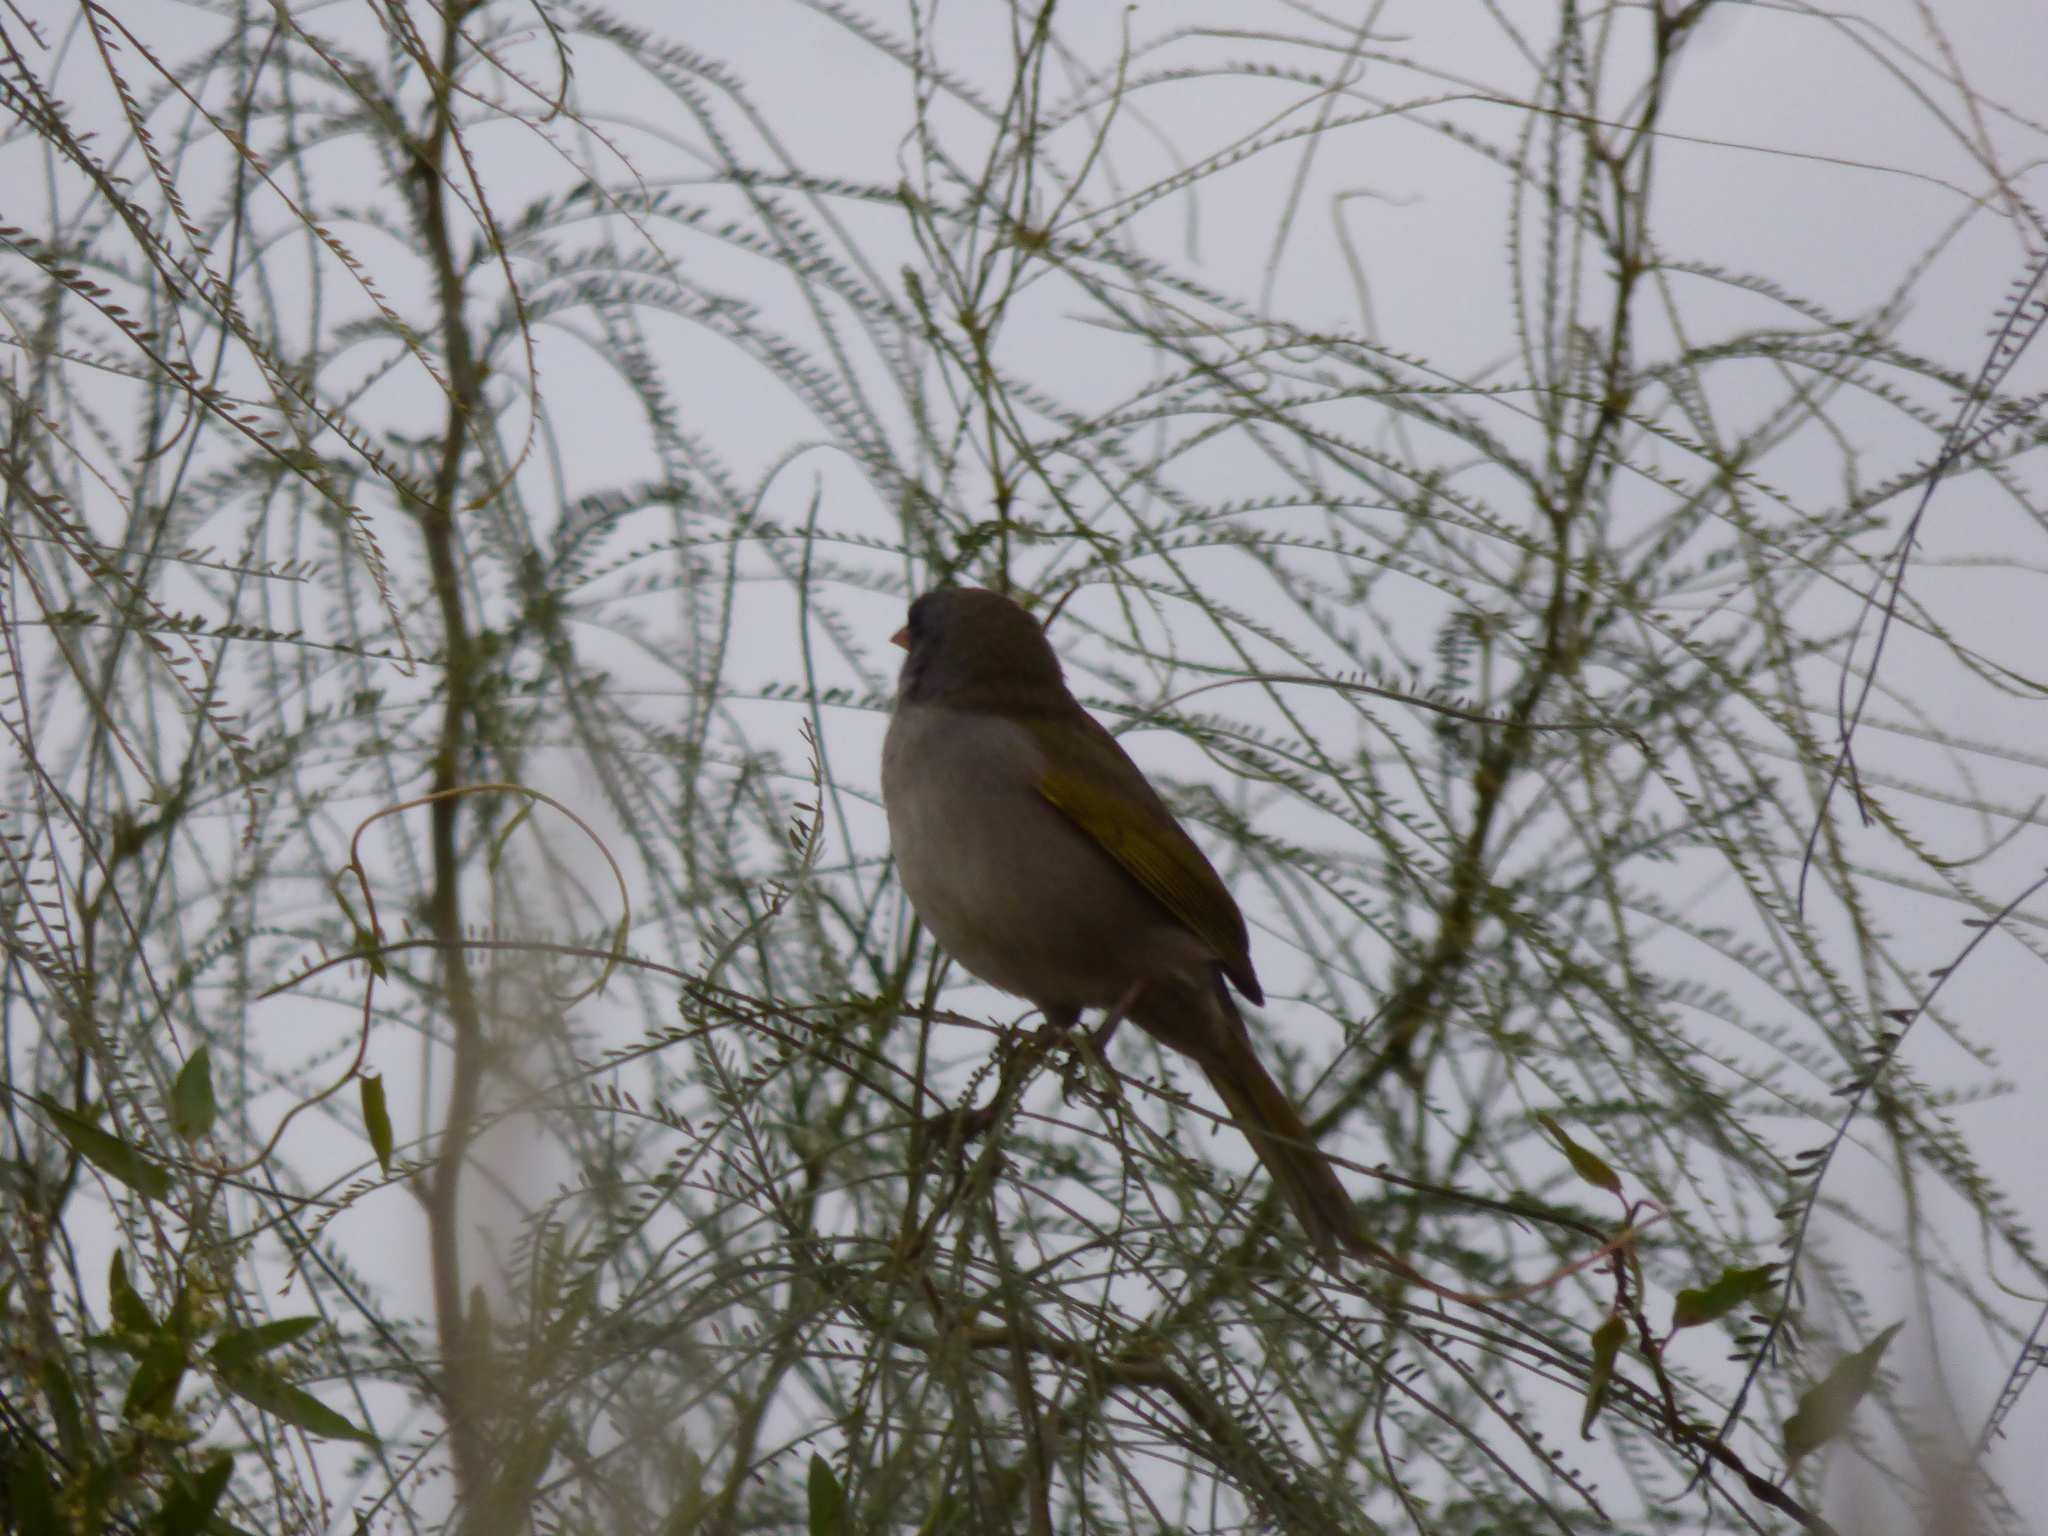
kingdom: Animalia
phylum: Chordata
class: Aves
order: Passeriformes
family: Thraupidae
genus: Embernagra
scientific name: Embernagra platensis
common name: Pampa finch
